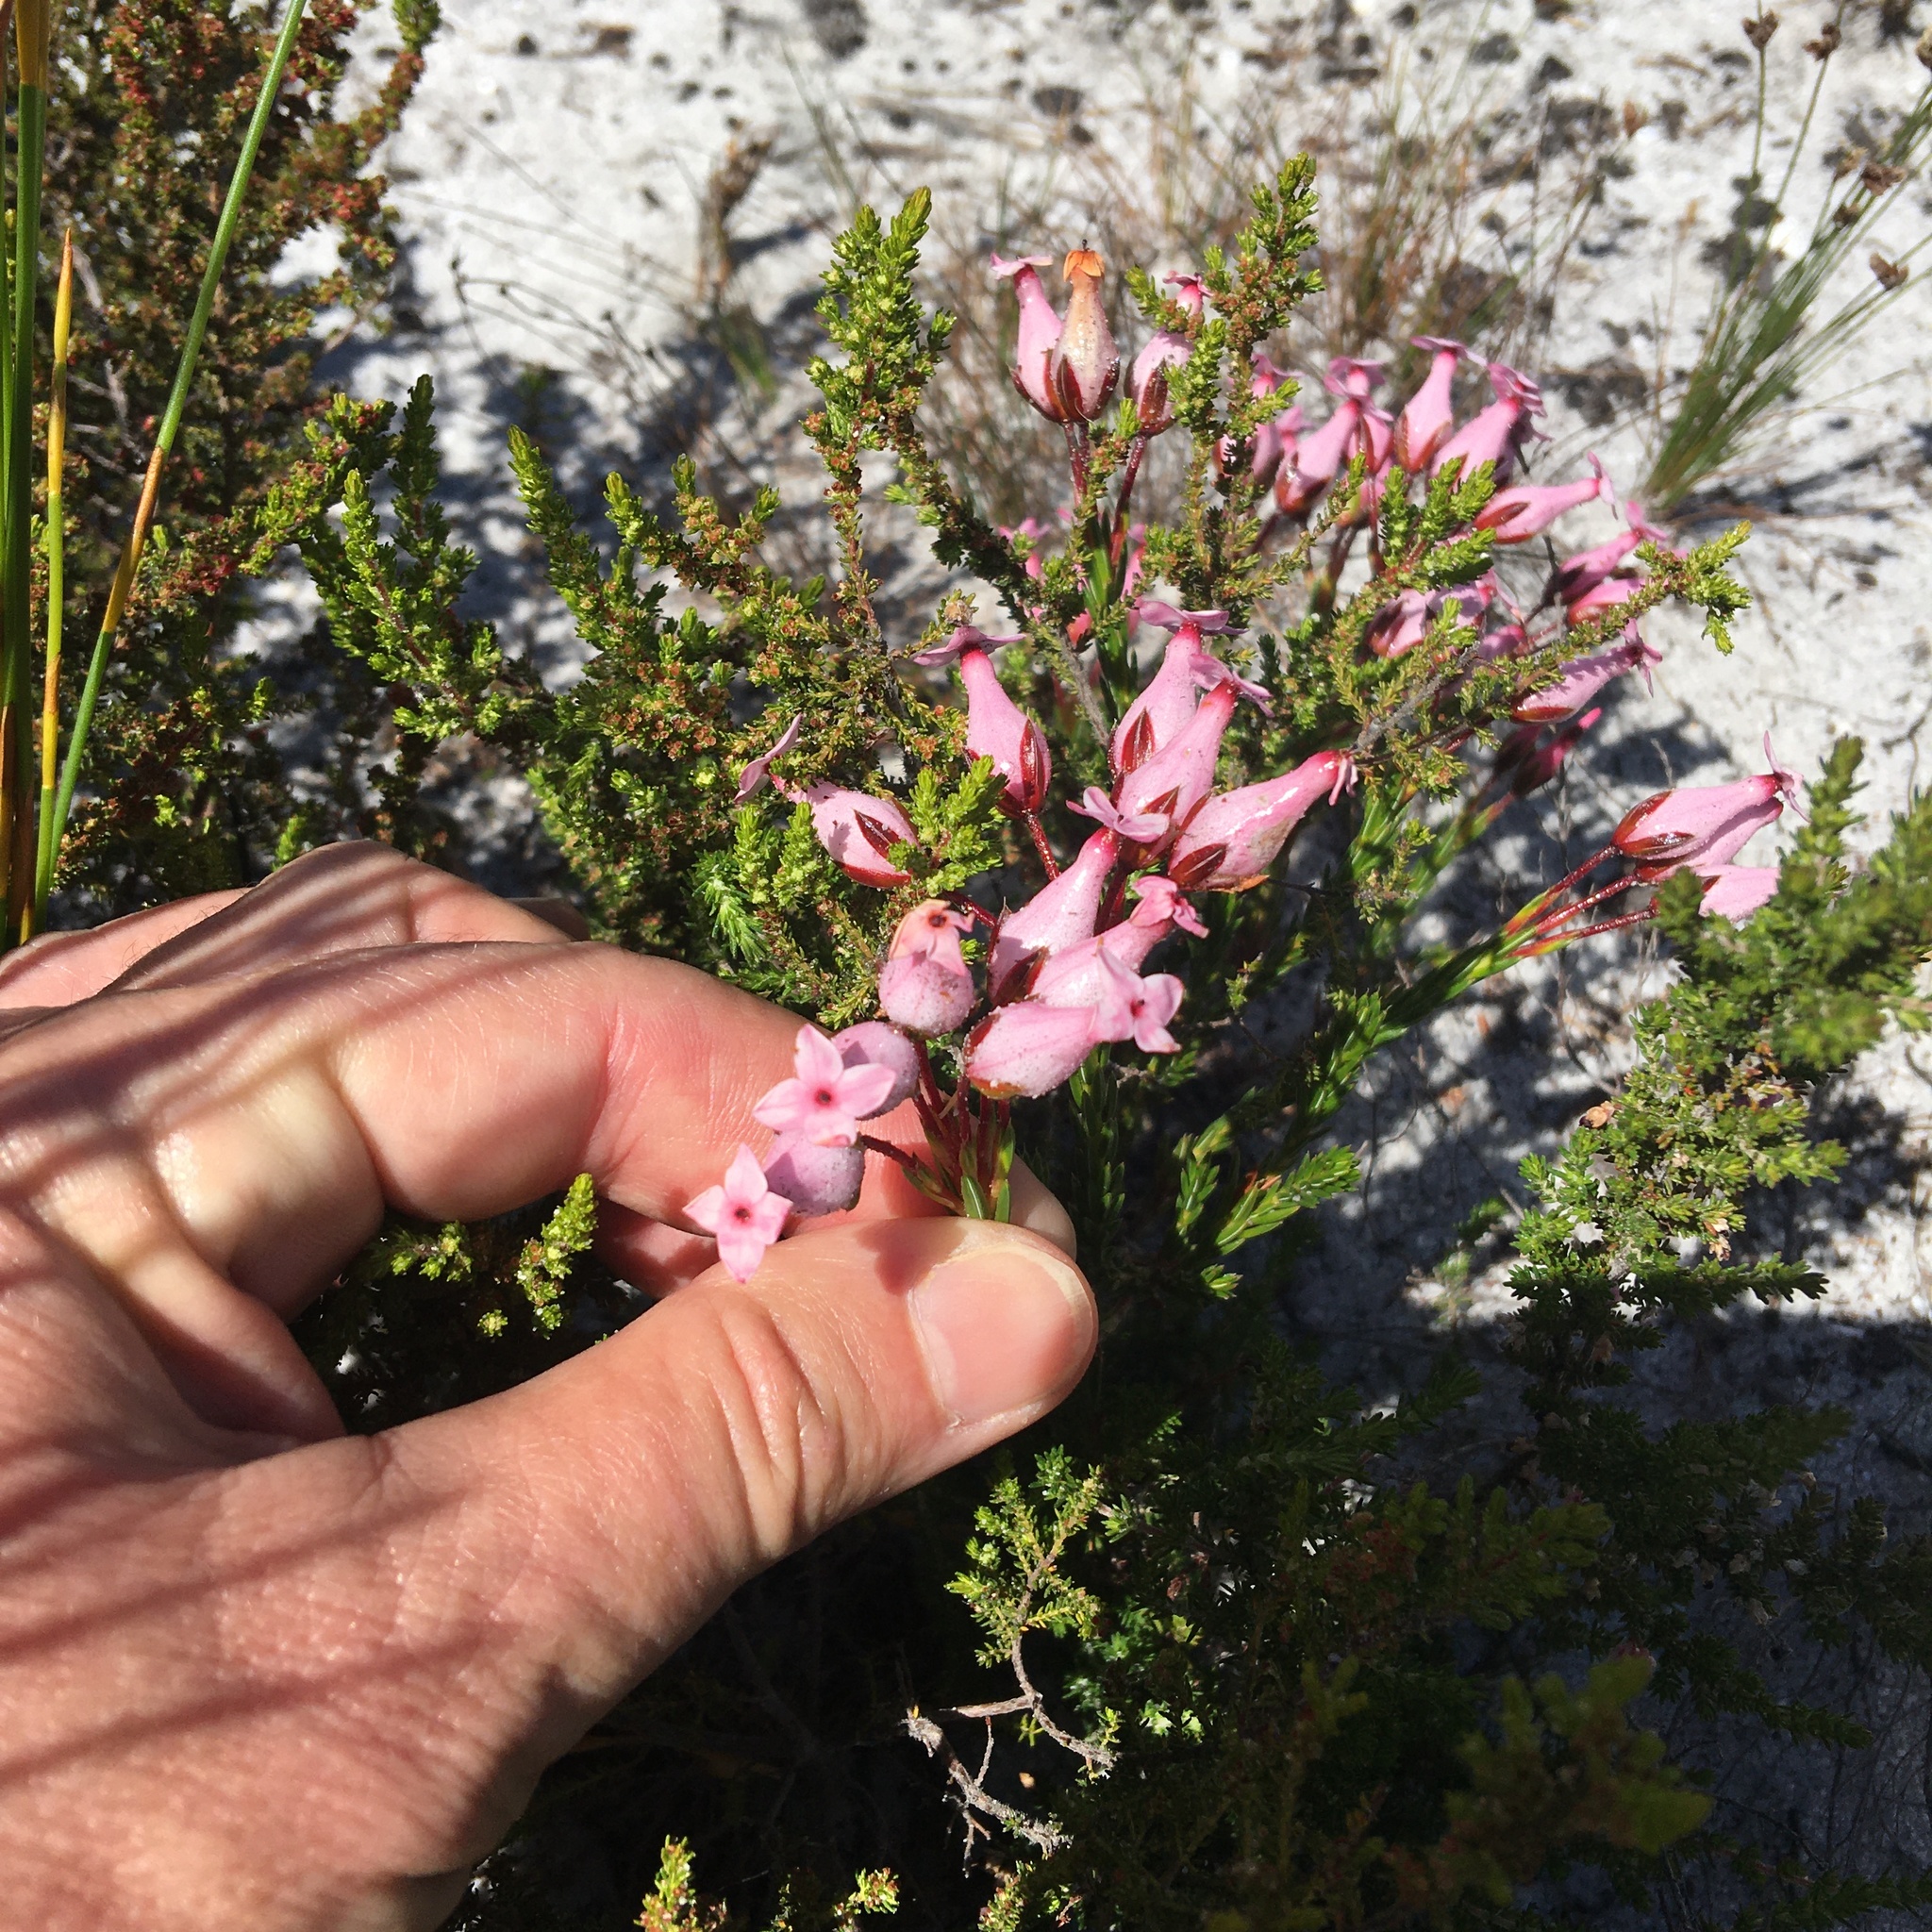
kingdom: Plantae
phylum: Tracheophyta
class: Magnoliopsida
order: Ericales
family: Ericaceae
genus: Erica
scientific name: Erica irbyana
